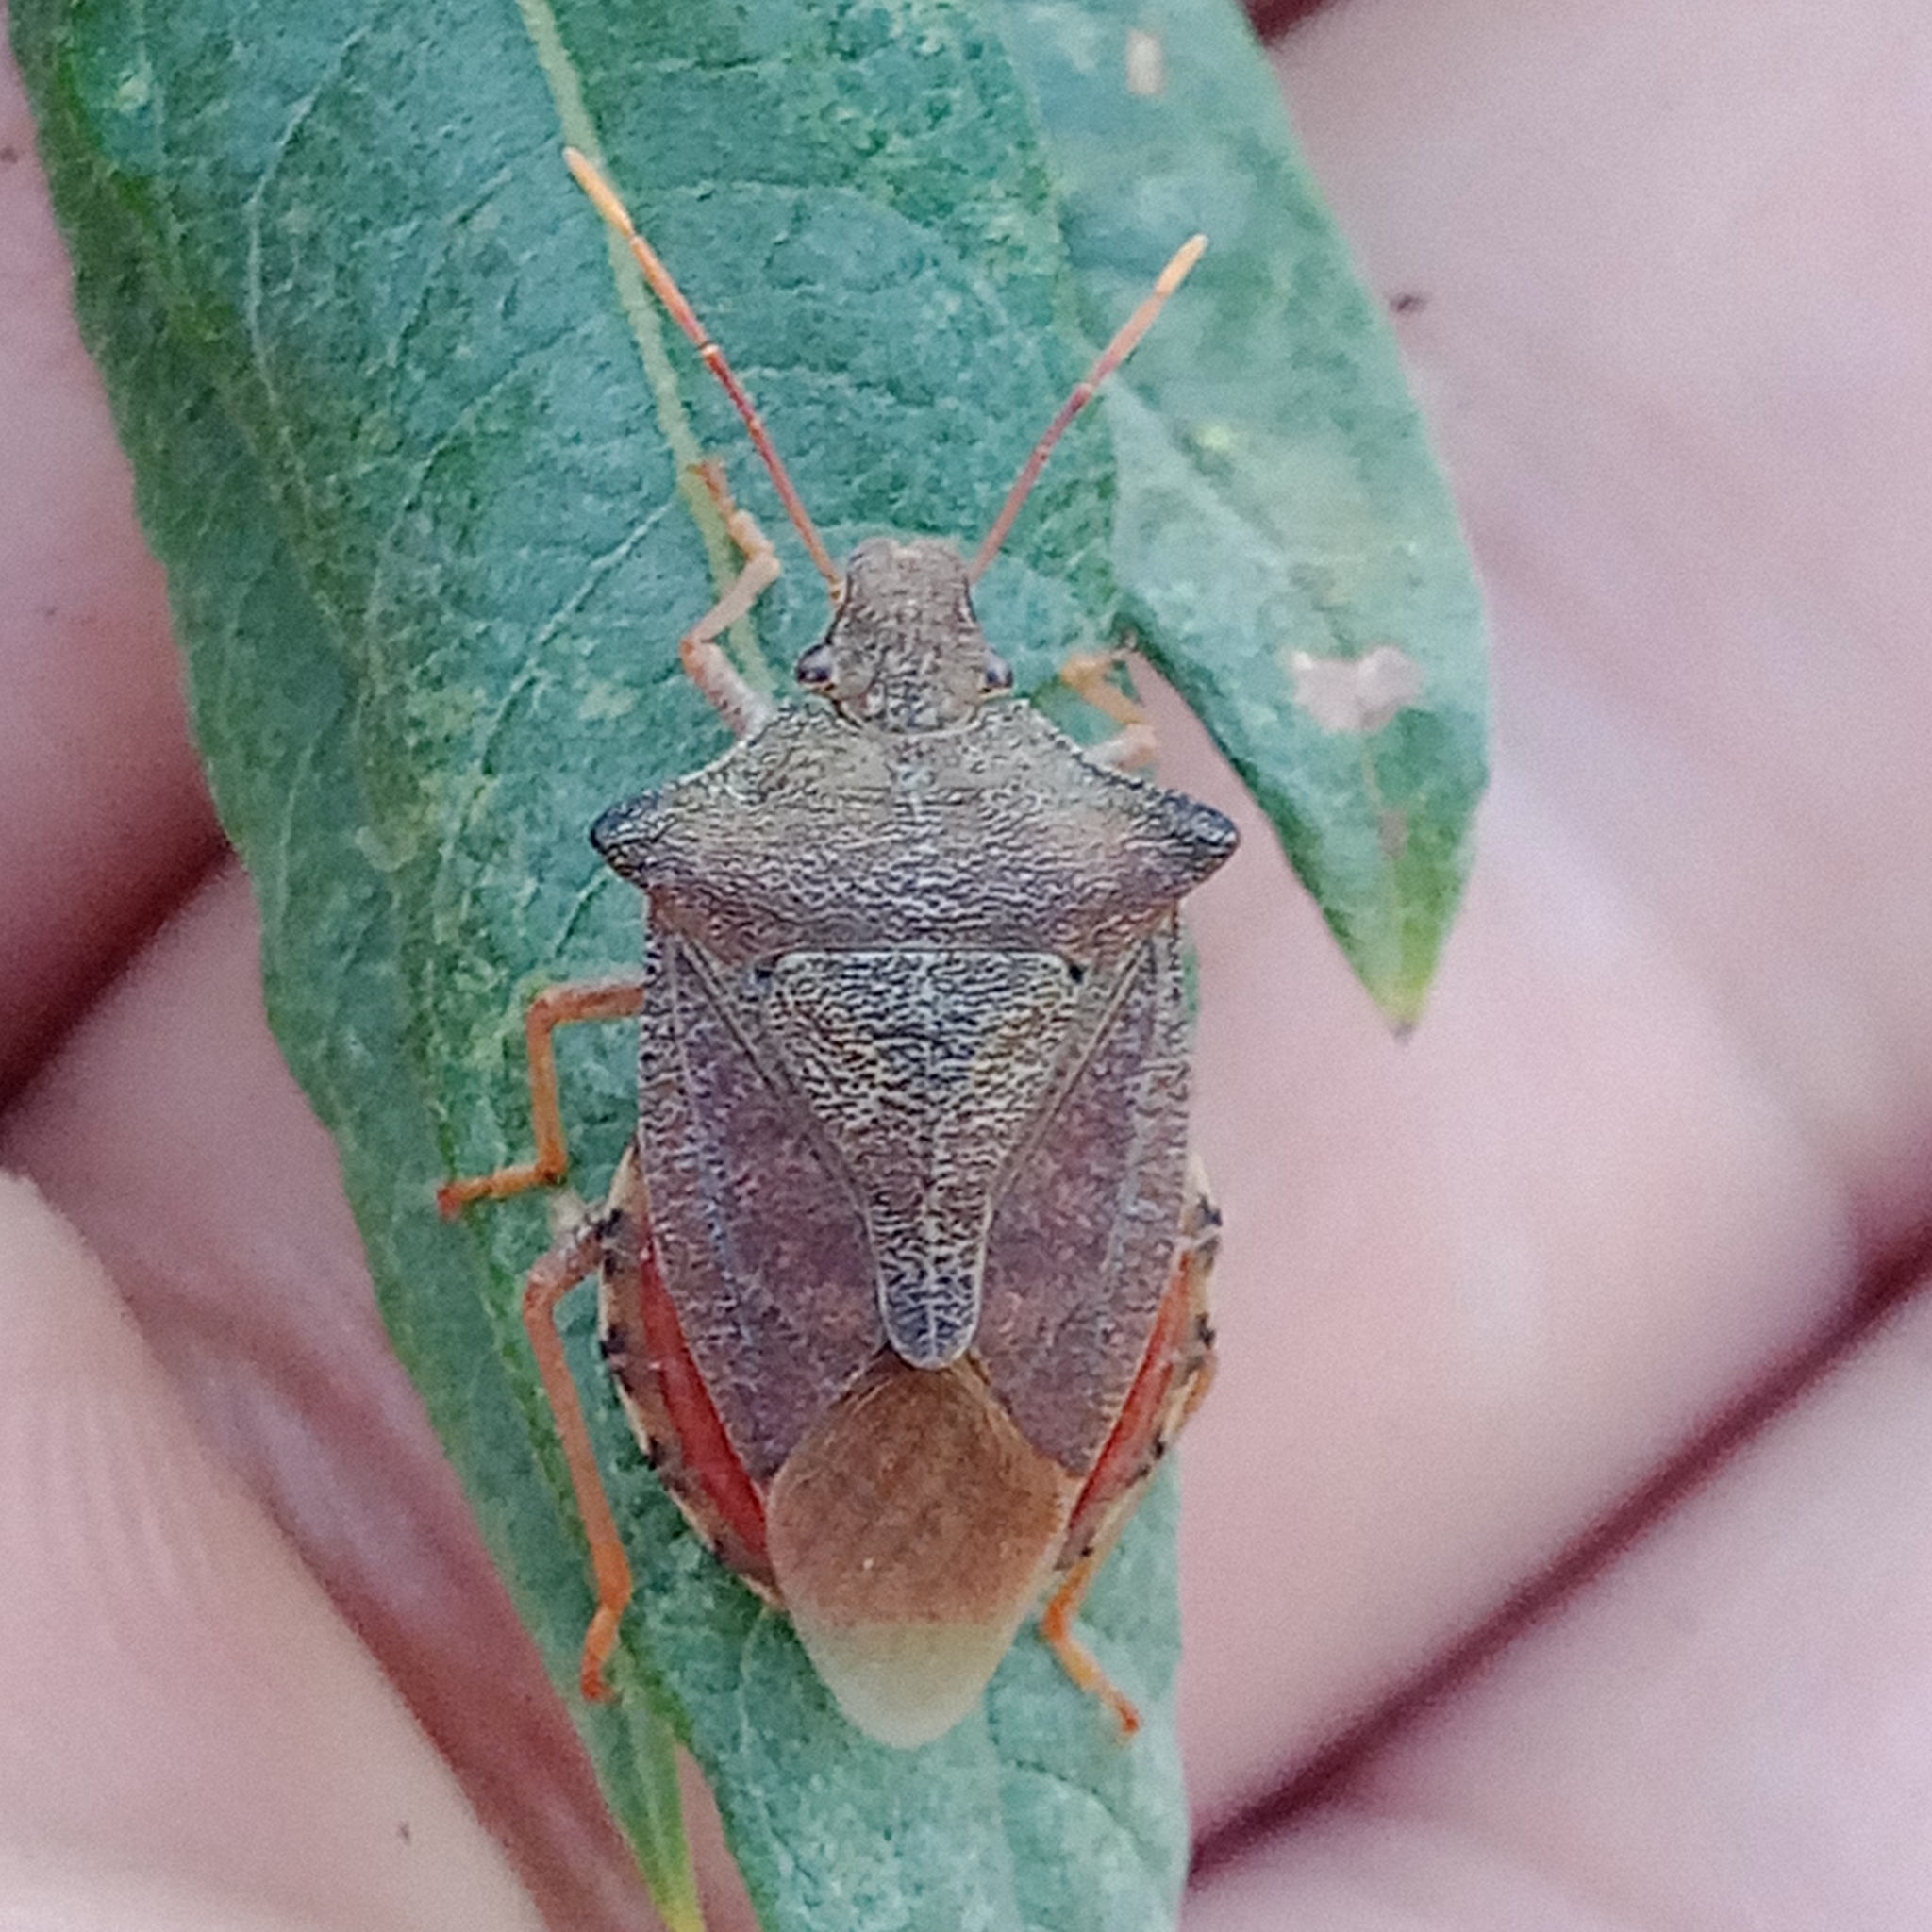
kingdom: Animalia
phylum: Arthropoda
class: Insecta
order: Hemiptera
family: Pentatomidae
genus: Arma
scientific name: Arma custos
